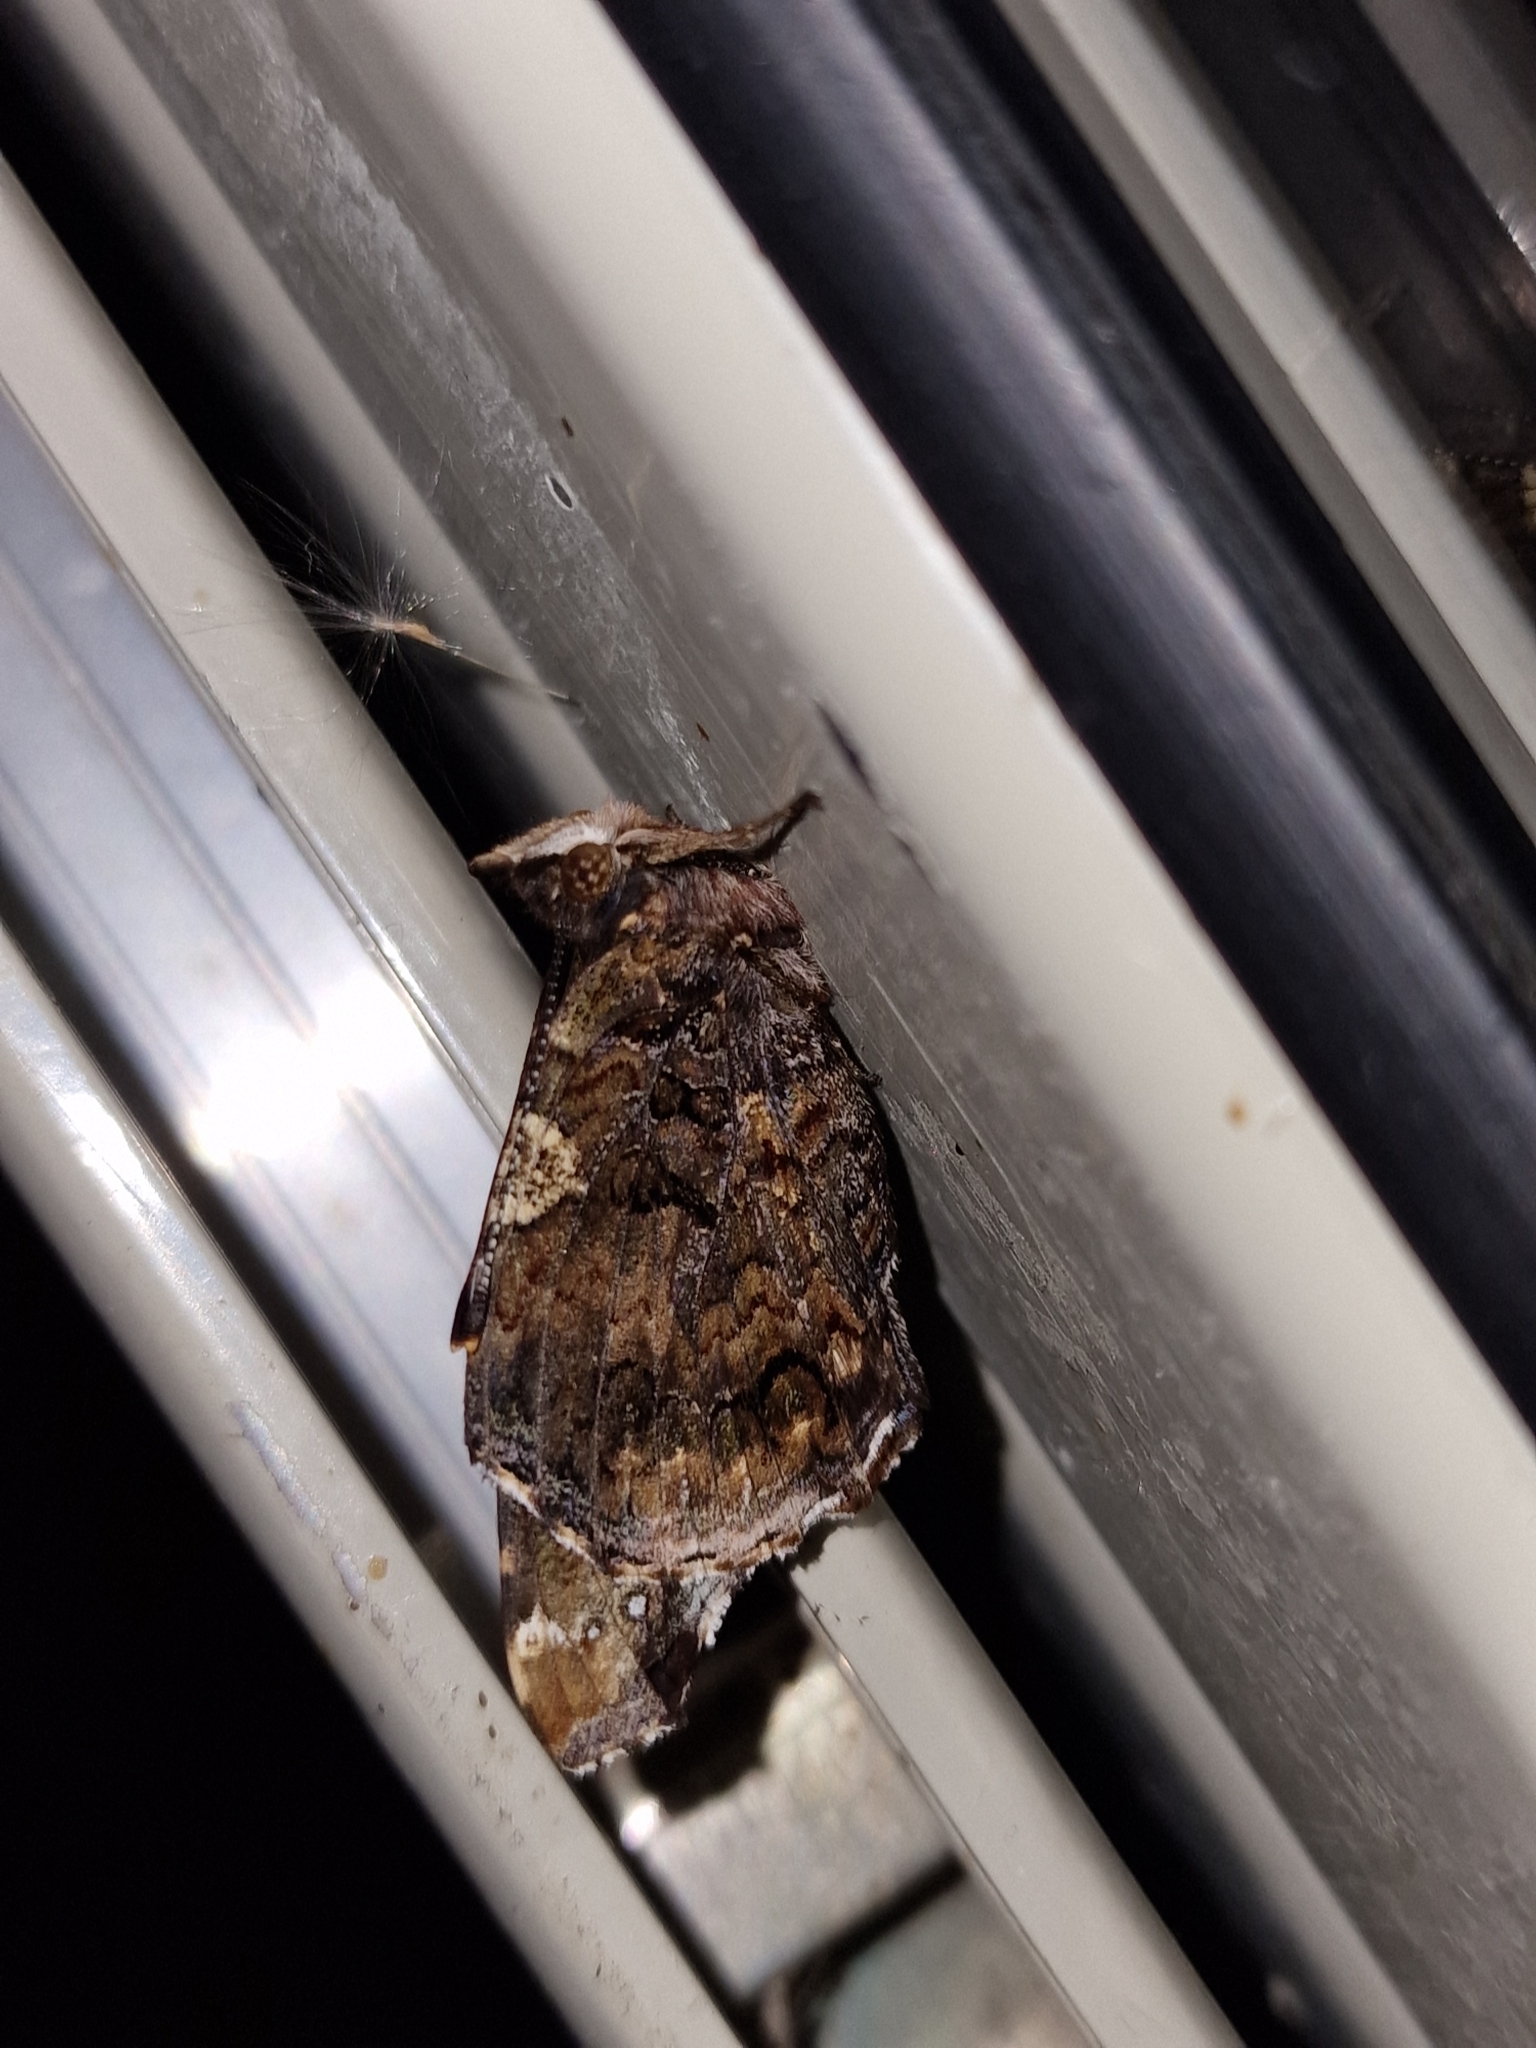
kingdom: Animalia
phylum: Arthropoda
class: Insecta
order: Lepidoptera
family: Nymphalidae
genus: Vanessa
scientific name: Vanessa atalanta
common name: Red admiral
